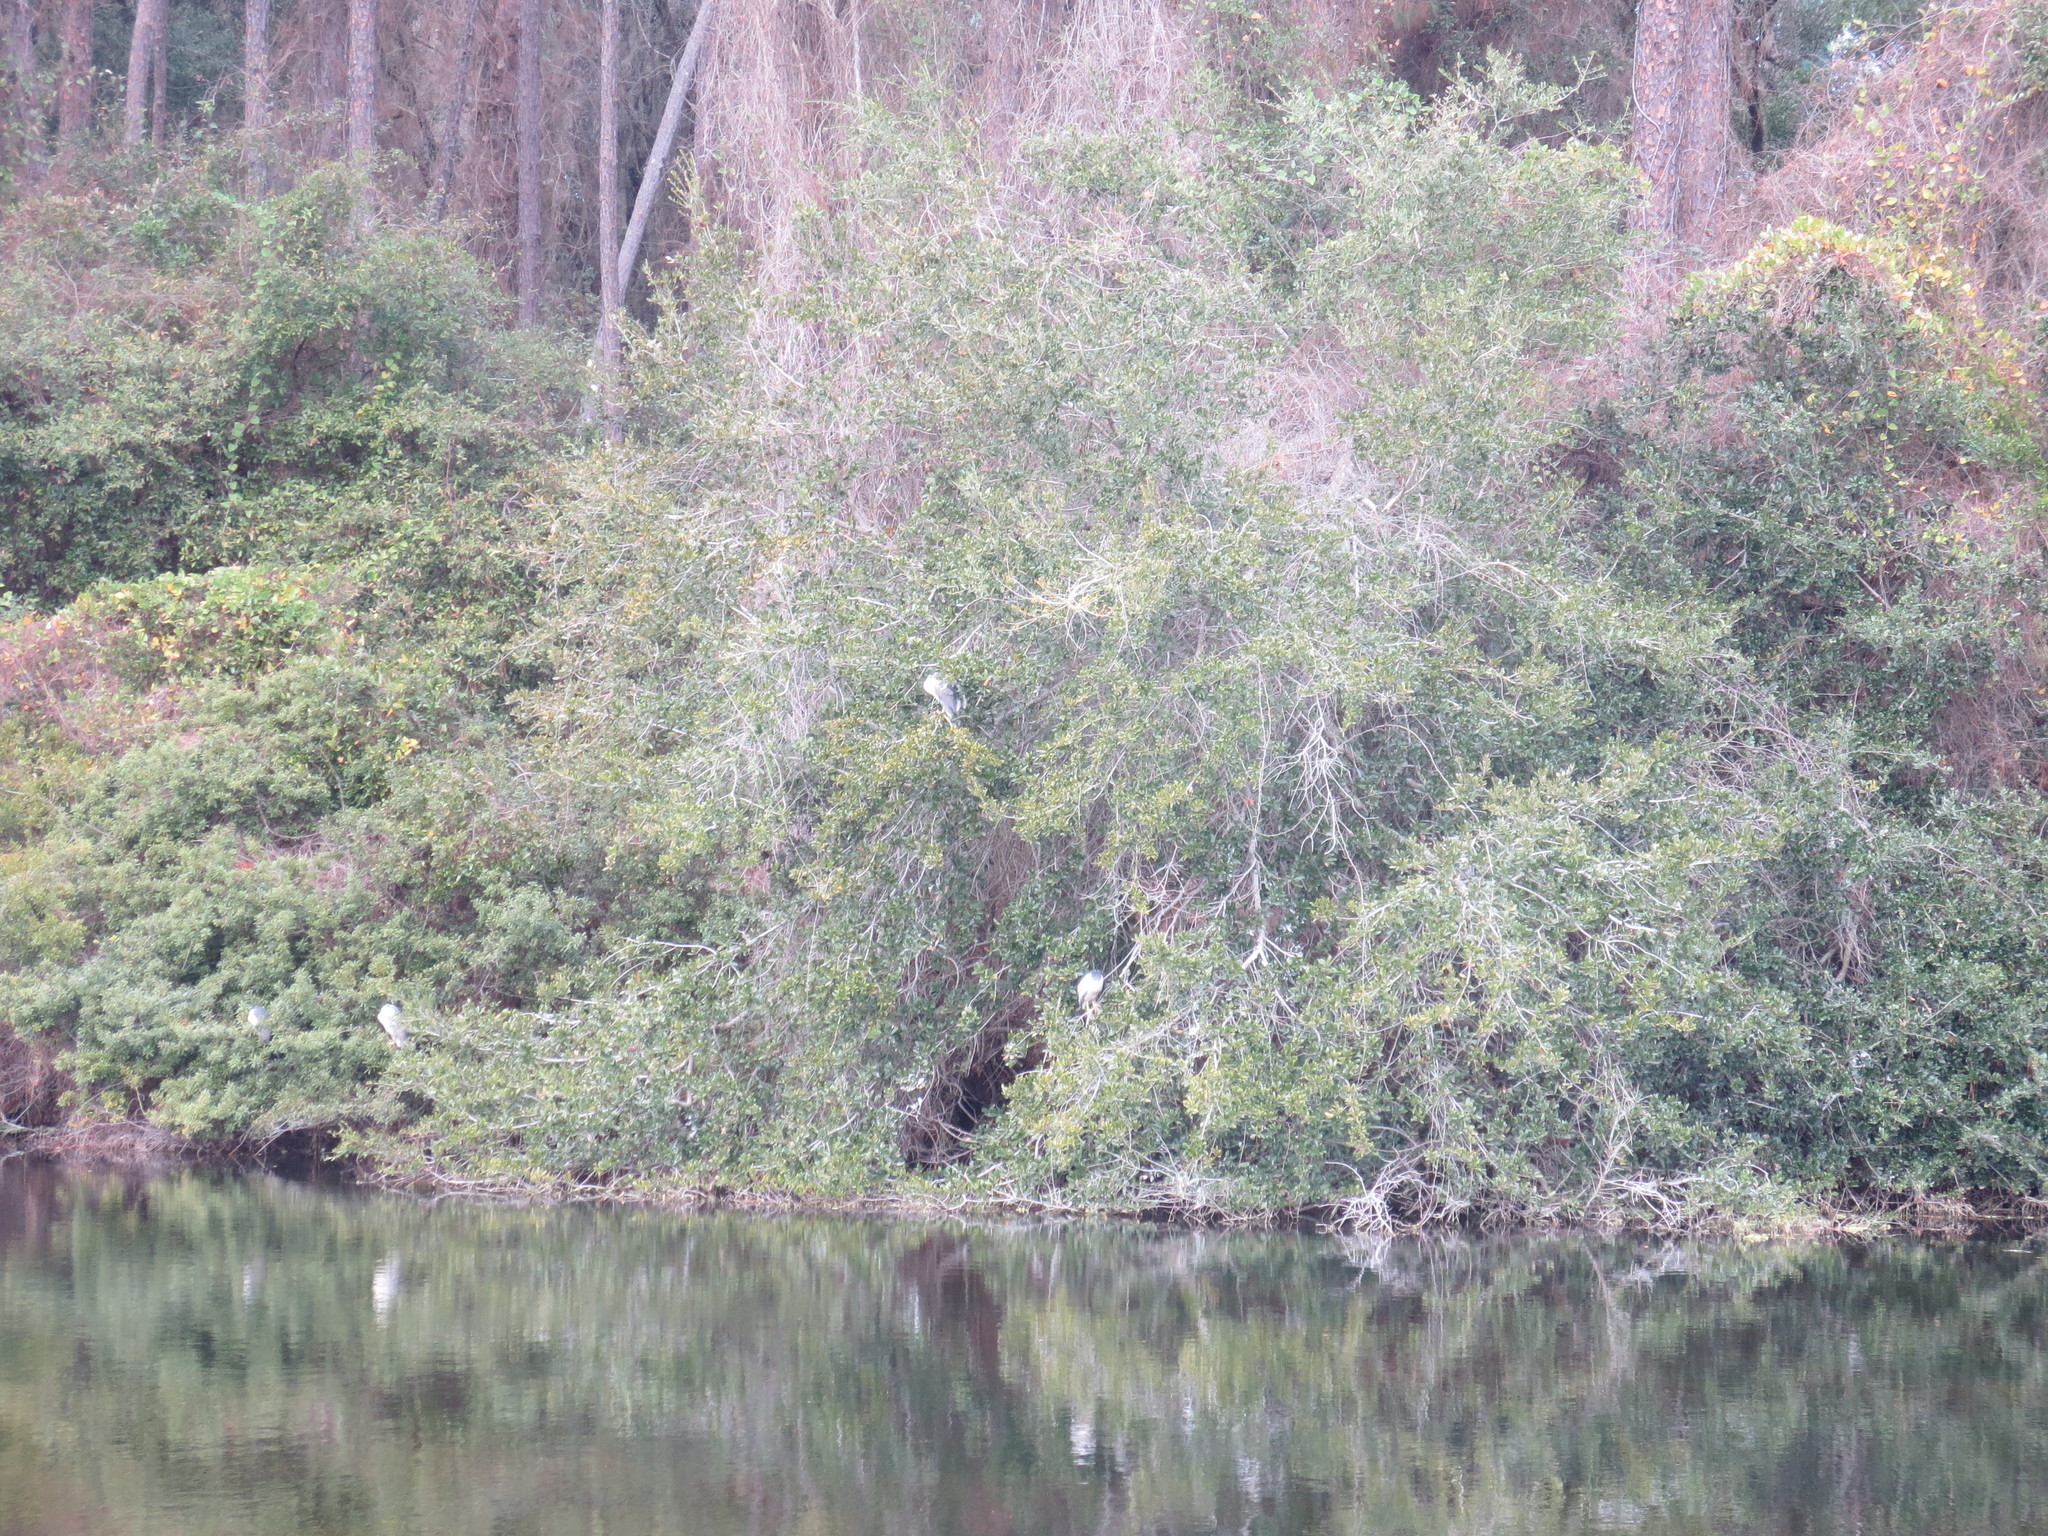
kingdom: Animalia
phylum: Chordata
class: Aves
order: Pelecaniformes
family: Ardeidae
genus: Nycticorax
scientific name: Nycticorax nycticorax
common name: Black-crowned night heron
